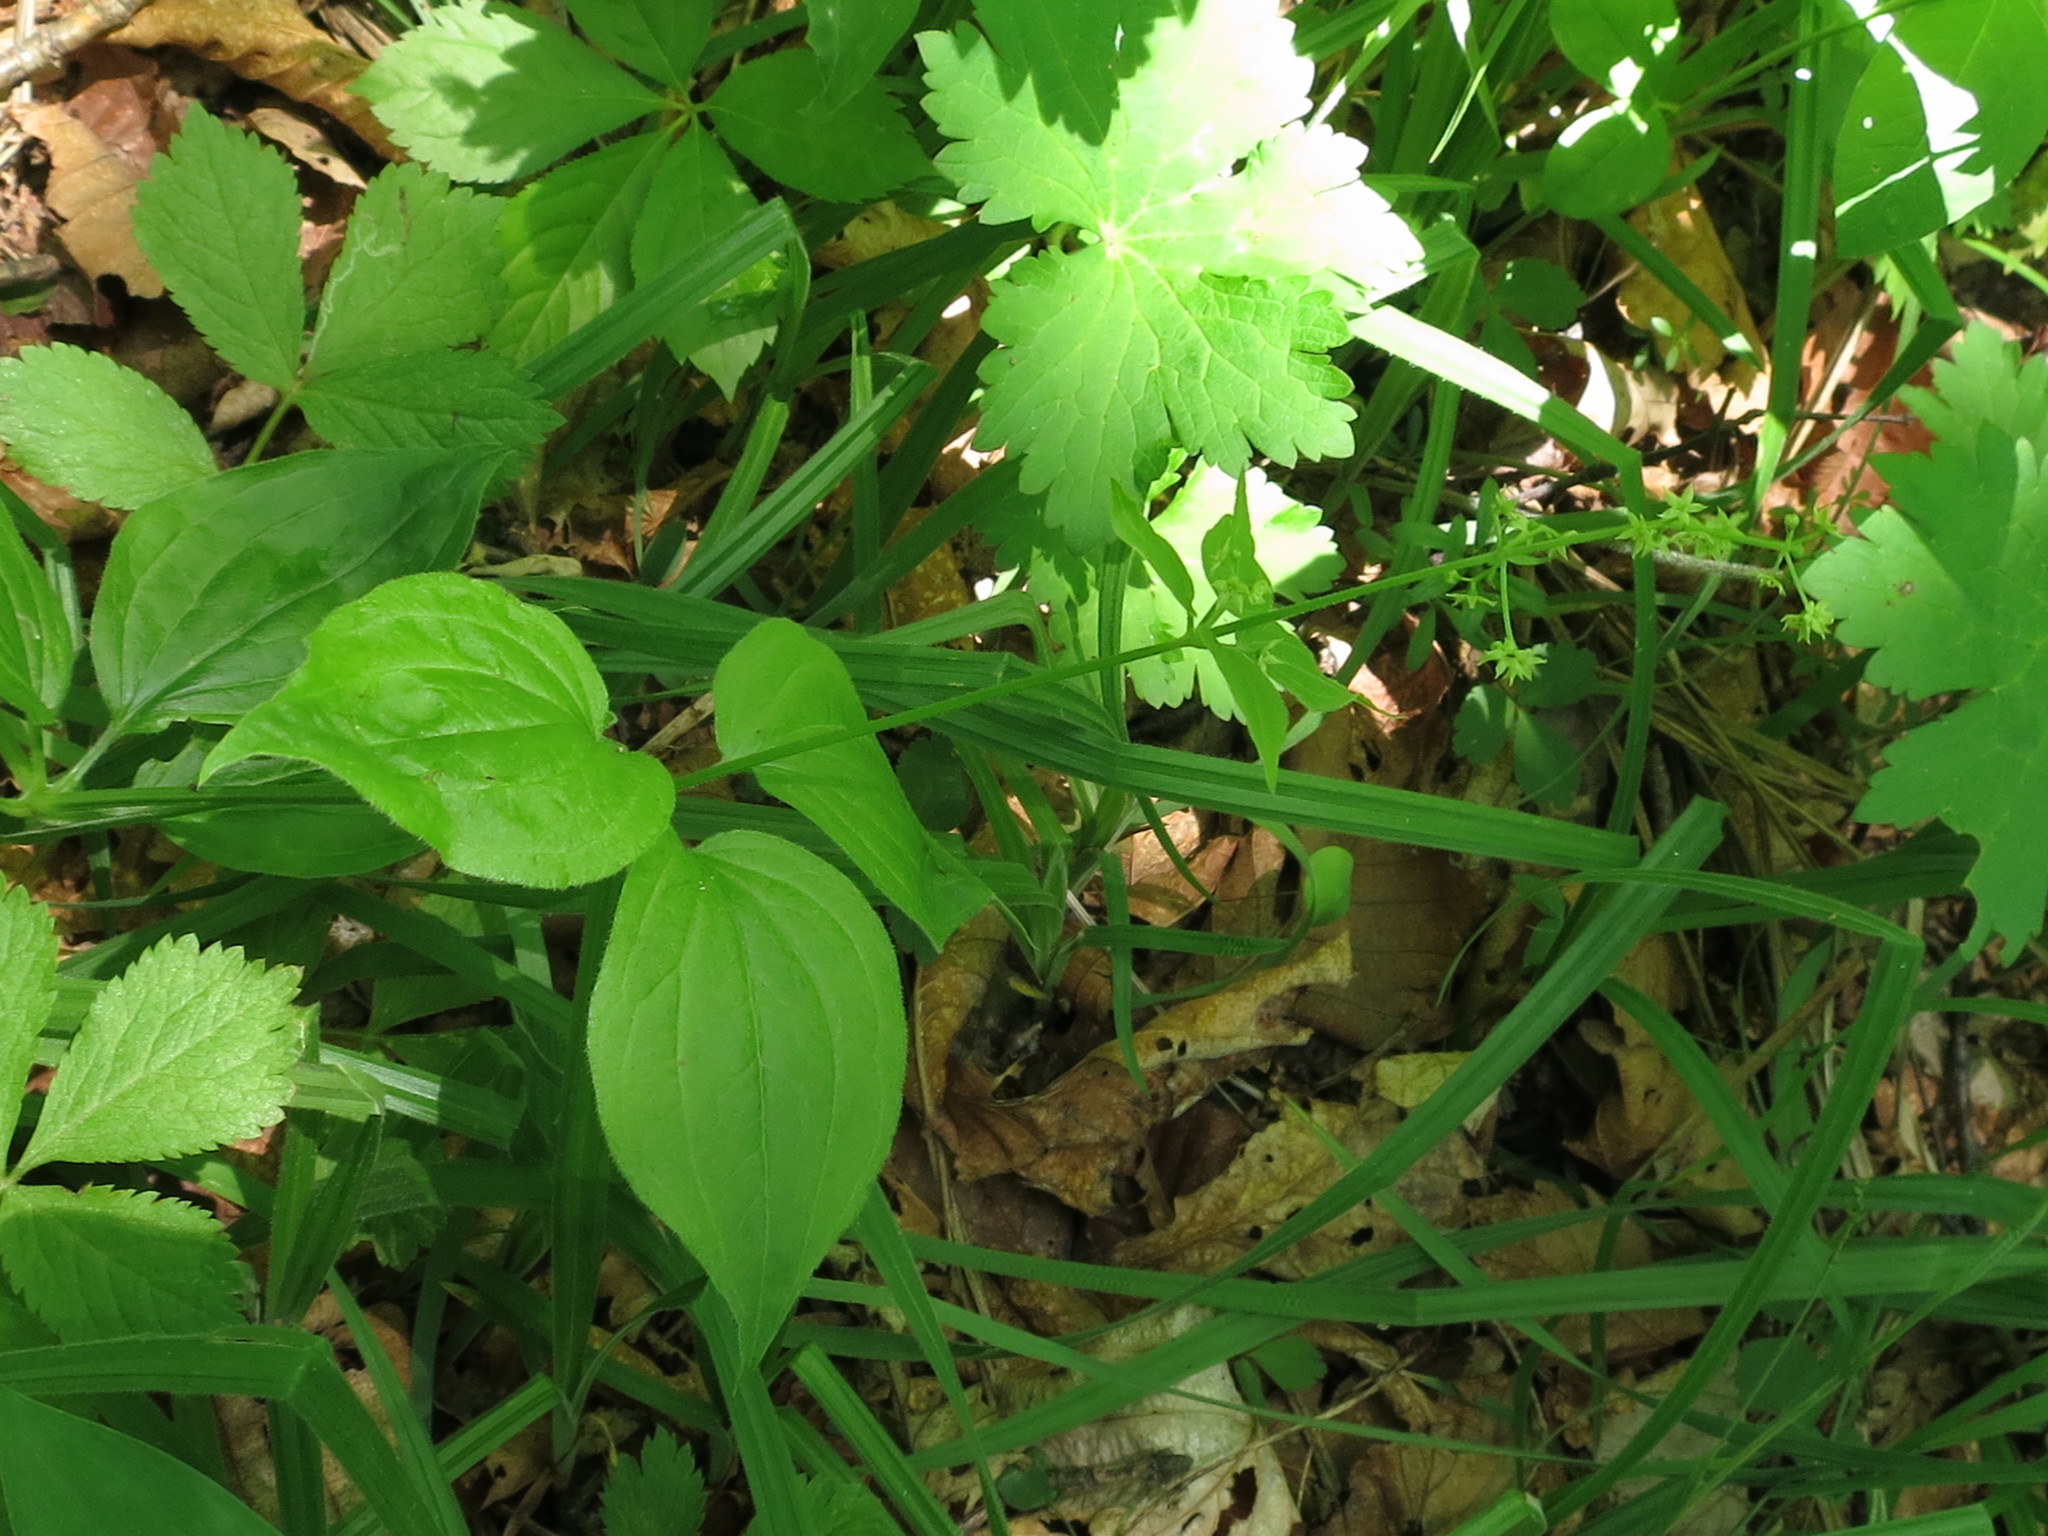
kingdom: Plantae
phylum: Tracheophyta
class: Magnoliopsida
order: Gentianales
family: Rubiaceae
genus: Rubia
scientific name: Rubia chinensis
